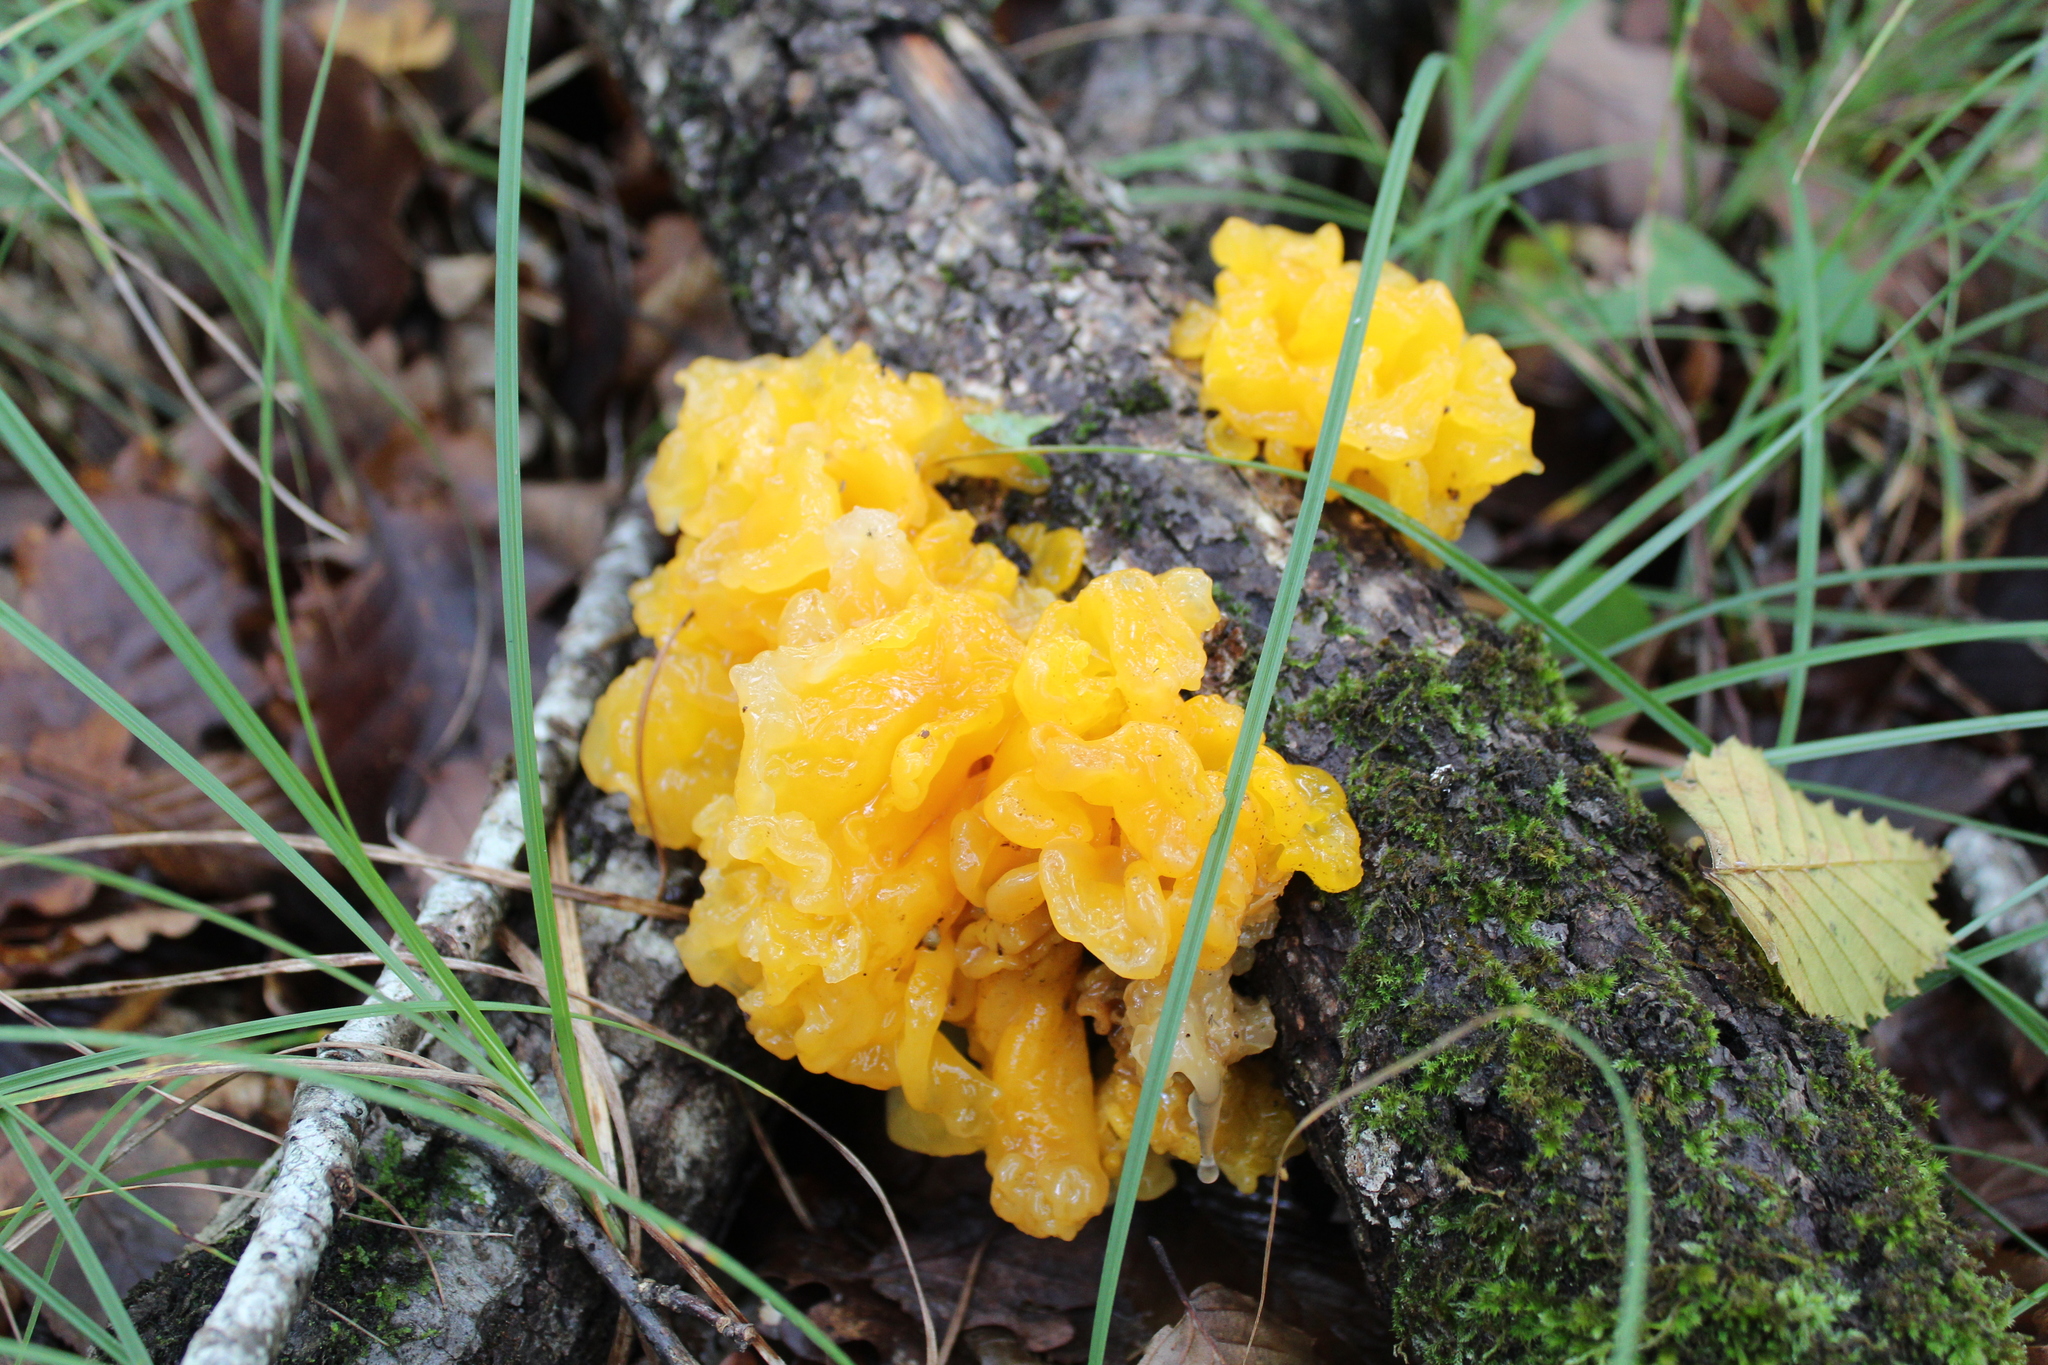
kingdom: Fungi
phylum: Basidiomycota
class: Tremellomycetes
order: Tremellales
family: Tremellaceae
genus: Tremella
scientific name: Tremella mesenterica
